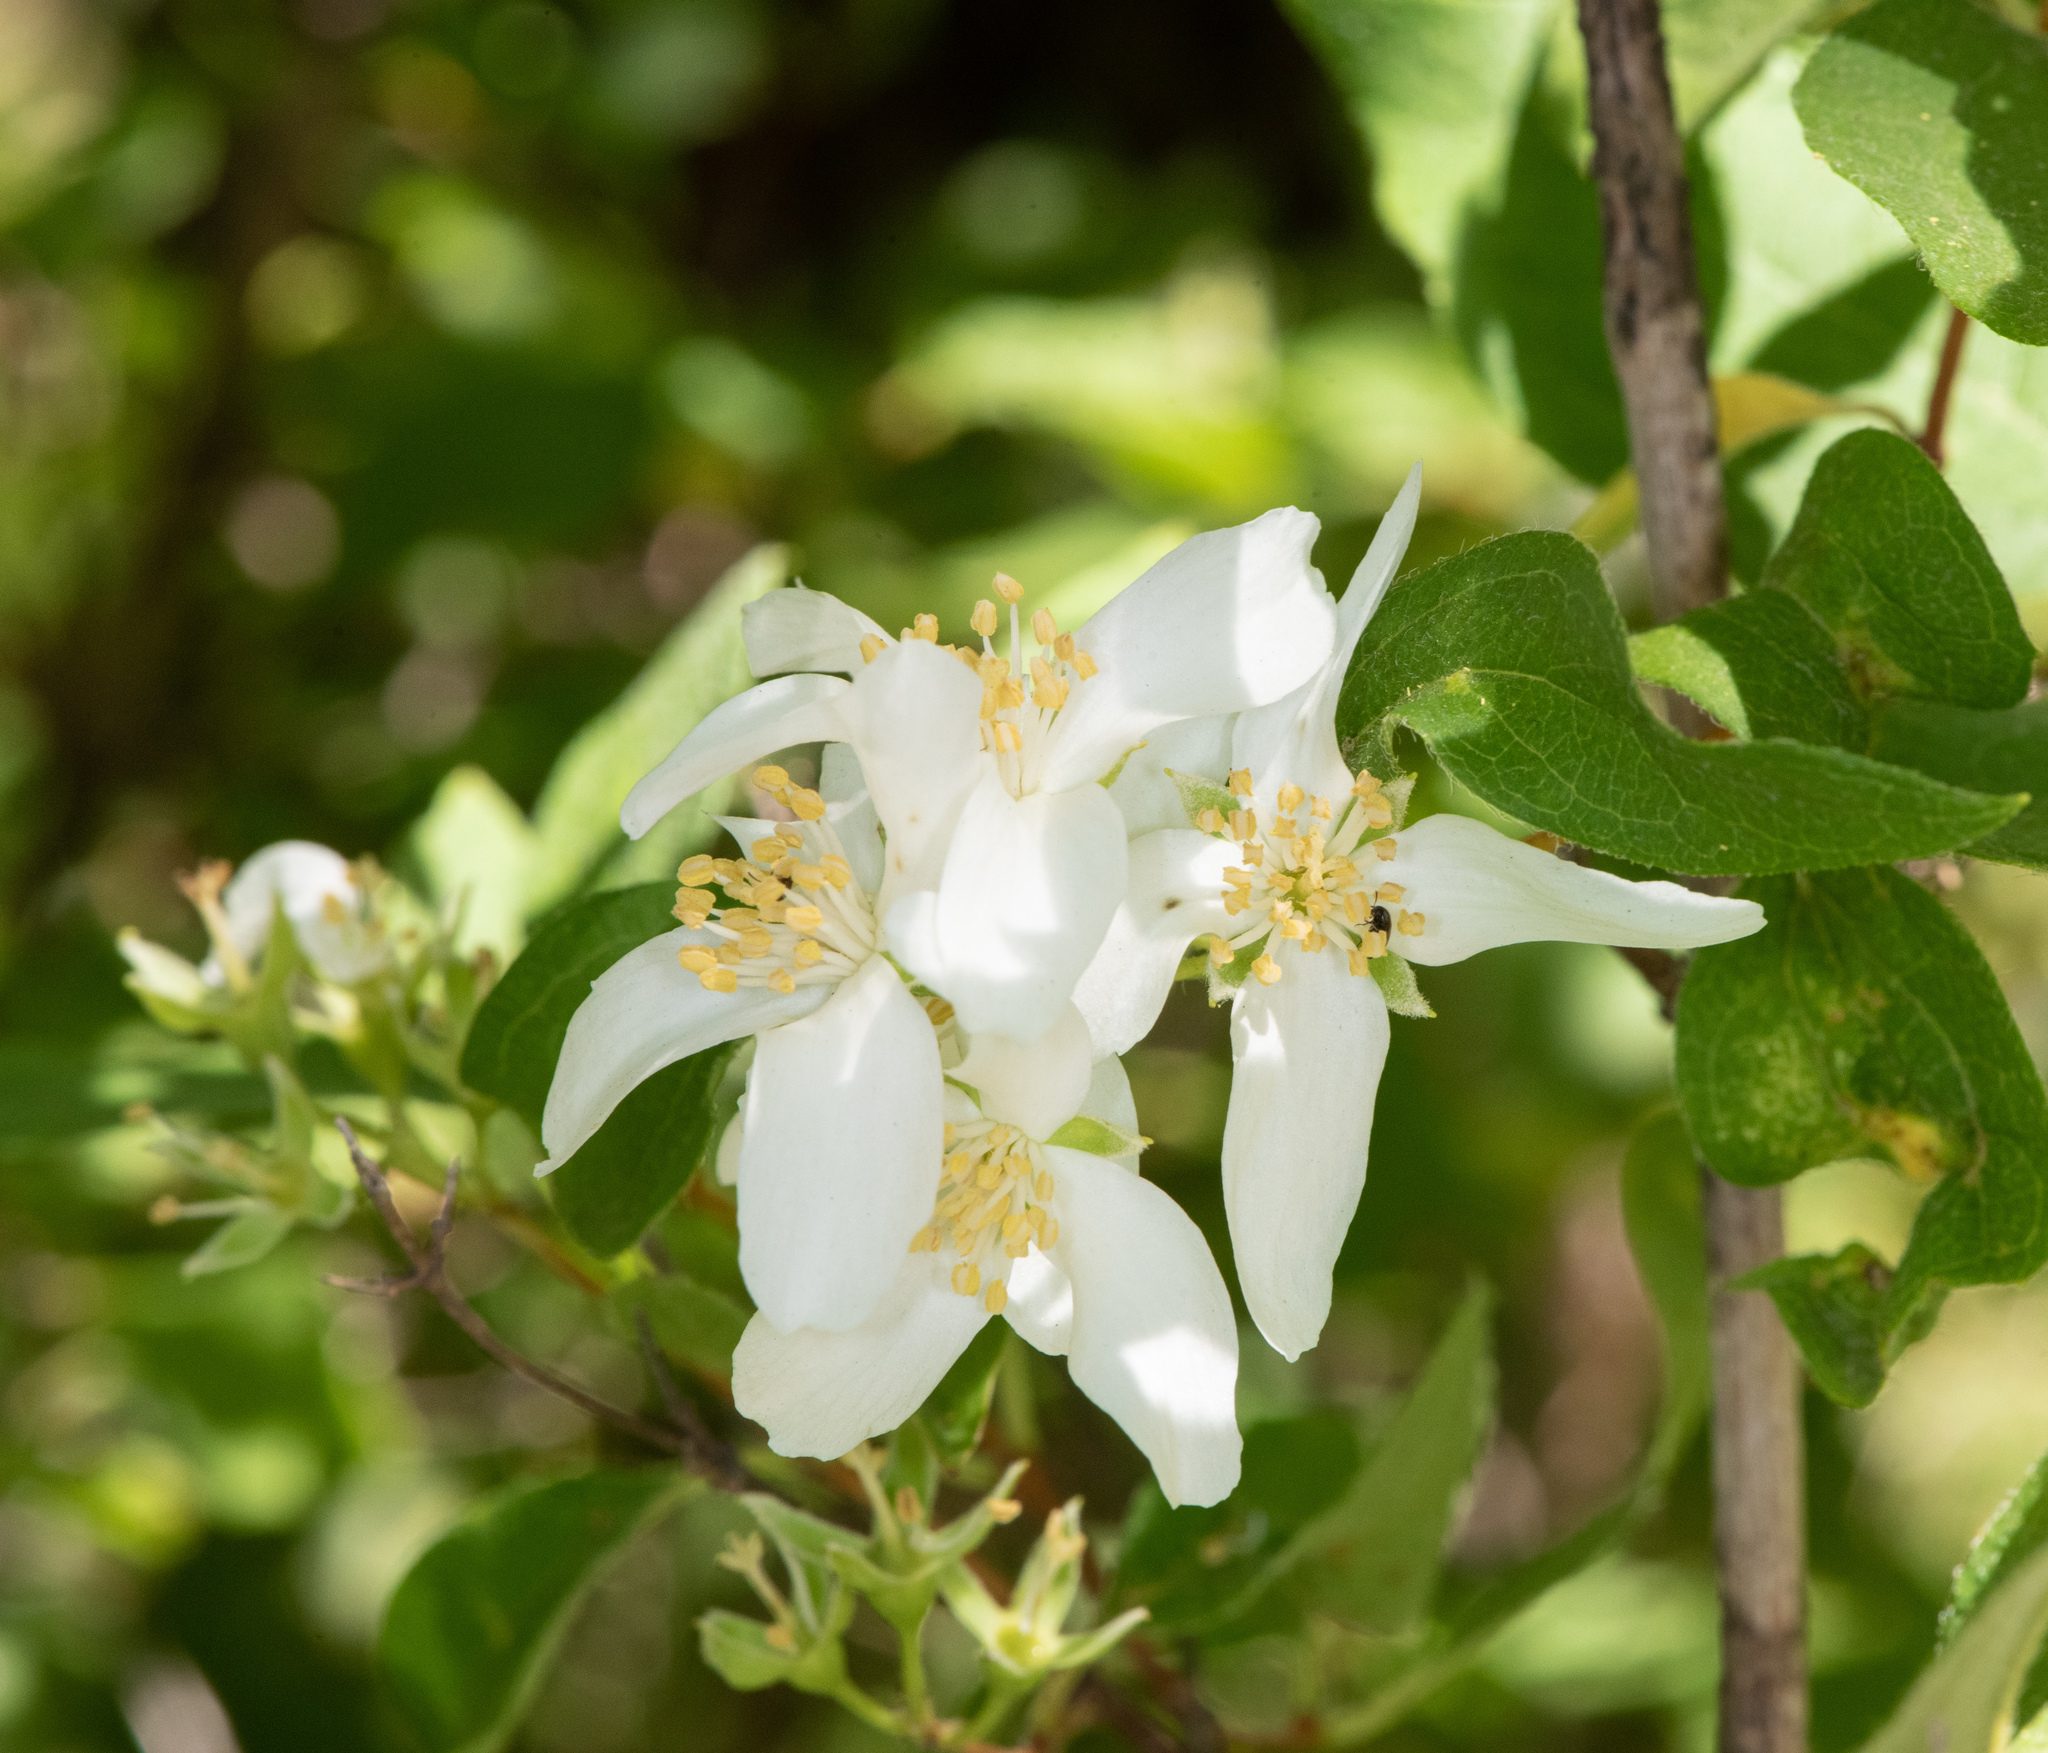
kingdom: Plantae
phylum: Tracheophyta
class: Magnoliopsida
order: Cornales
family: Hydrangeaceae
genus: Philadelphus
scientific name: Philadelphus lewisii
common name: Lewis's mock orange
